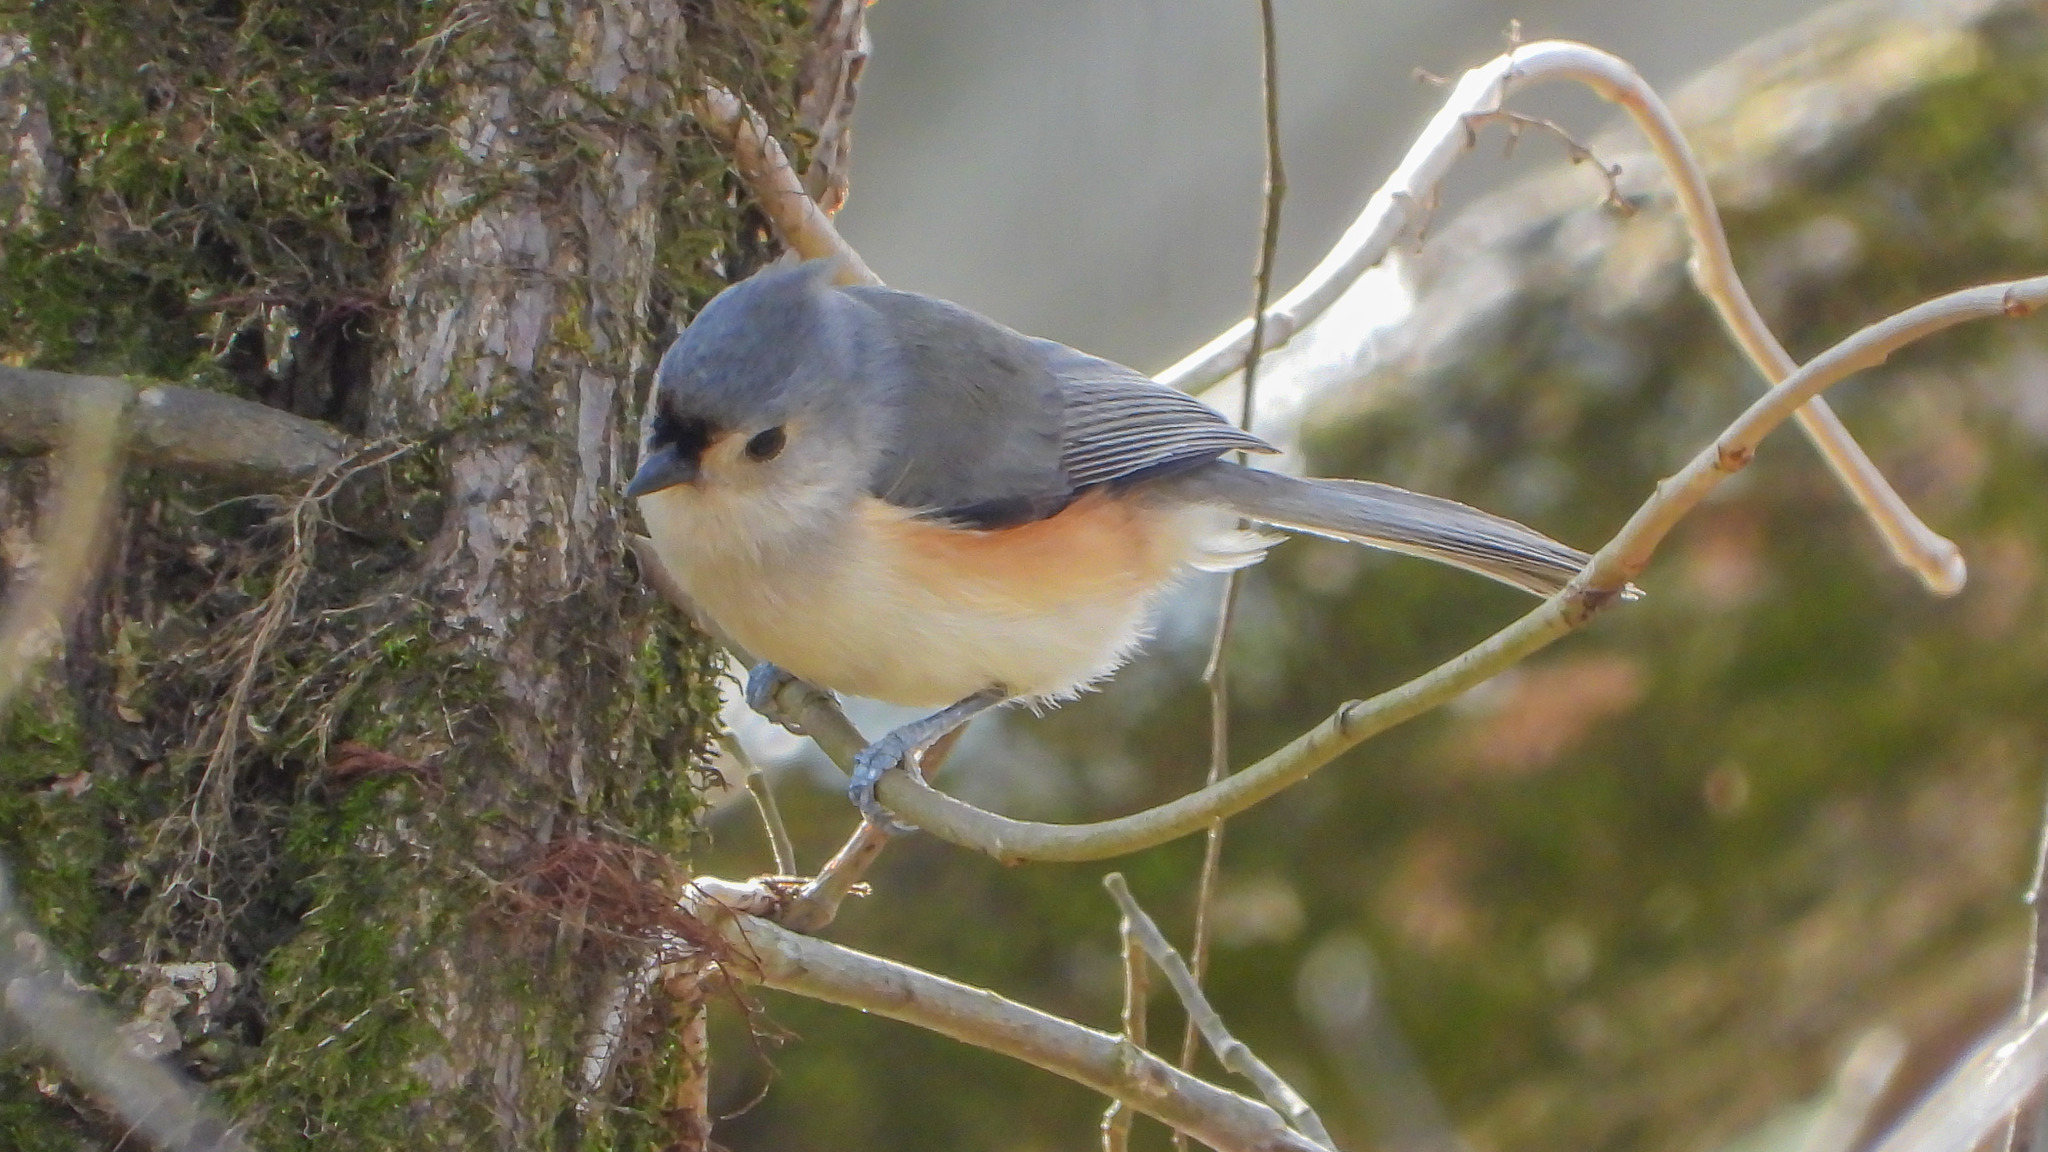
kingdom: Animalia
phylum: Chordata
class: Aves
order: Passeriformes
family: Paridae
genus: Baeolophus
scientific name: Baeolophus bicolor
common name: Tufted titmouse
